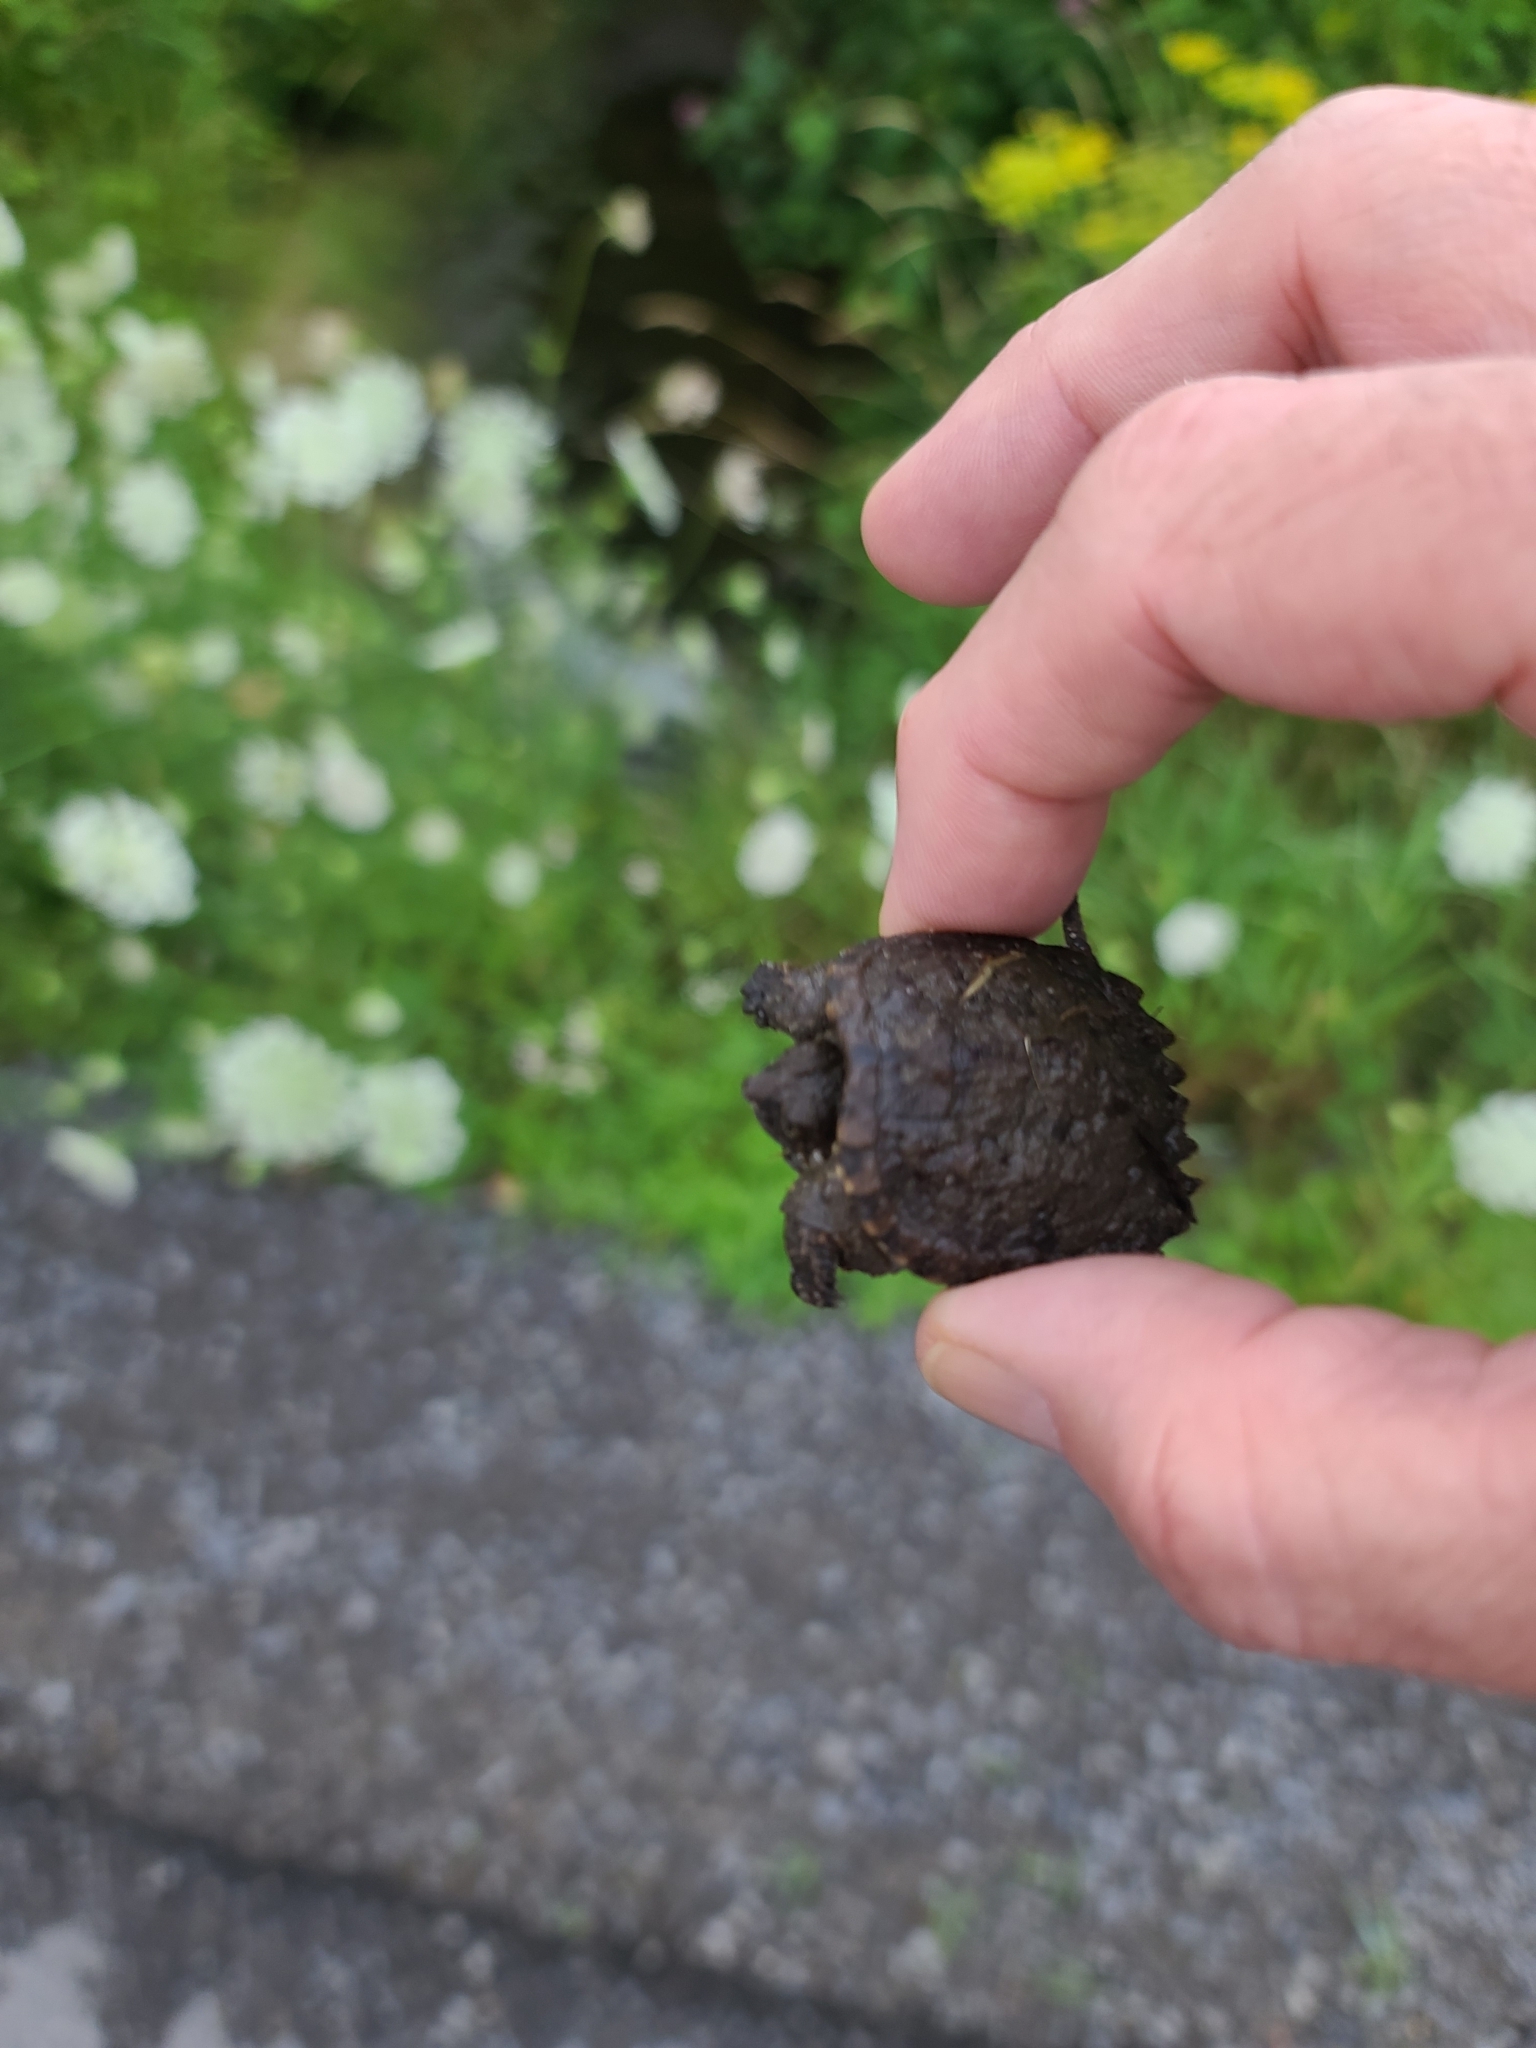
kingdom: Animalia
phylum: Chordata
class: Testudines
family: Chelydridae
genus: Chelydra
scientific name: Chelydra serpentina
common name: Common snapping turtle
